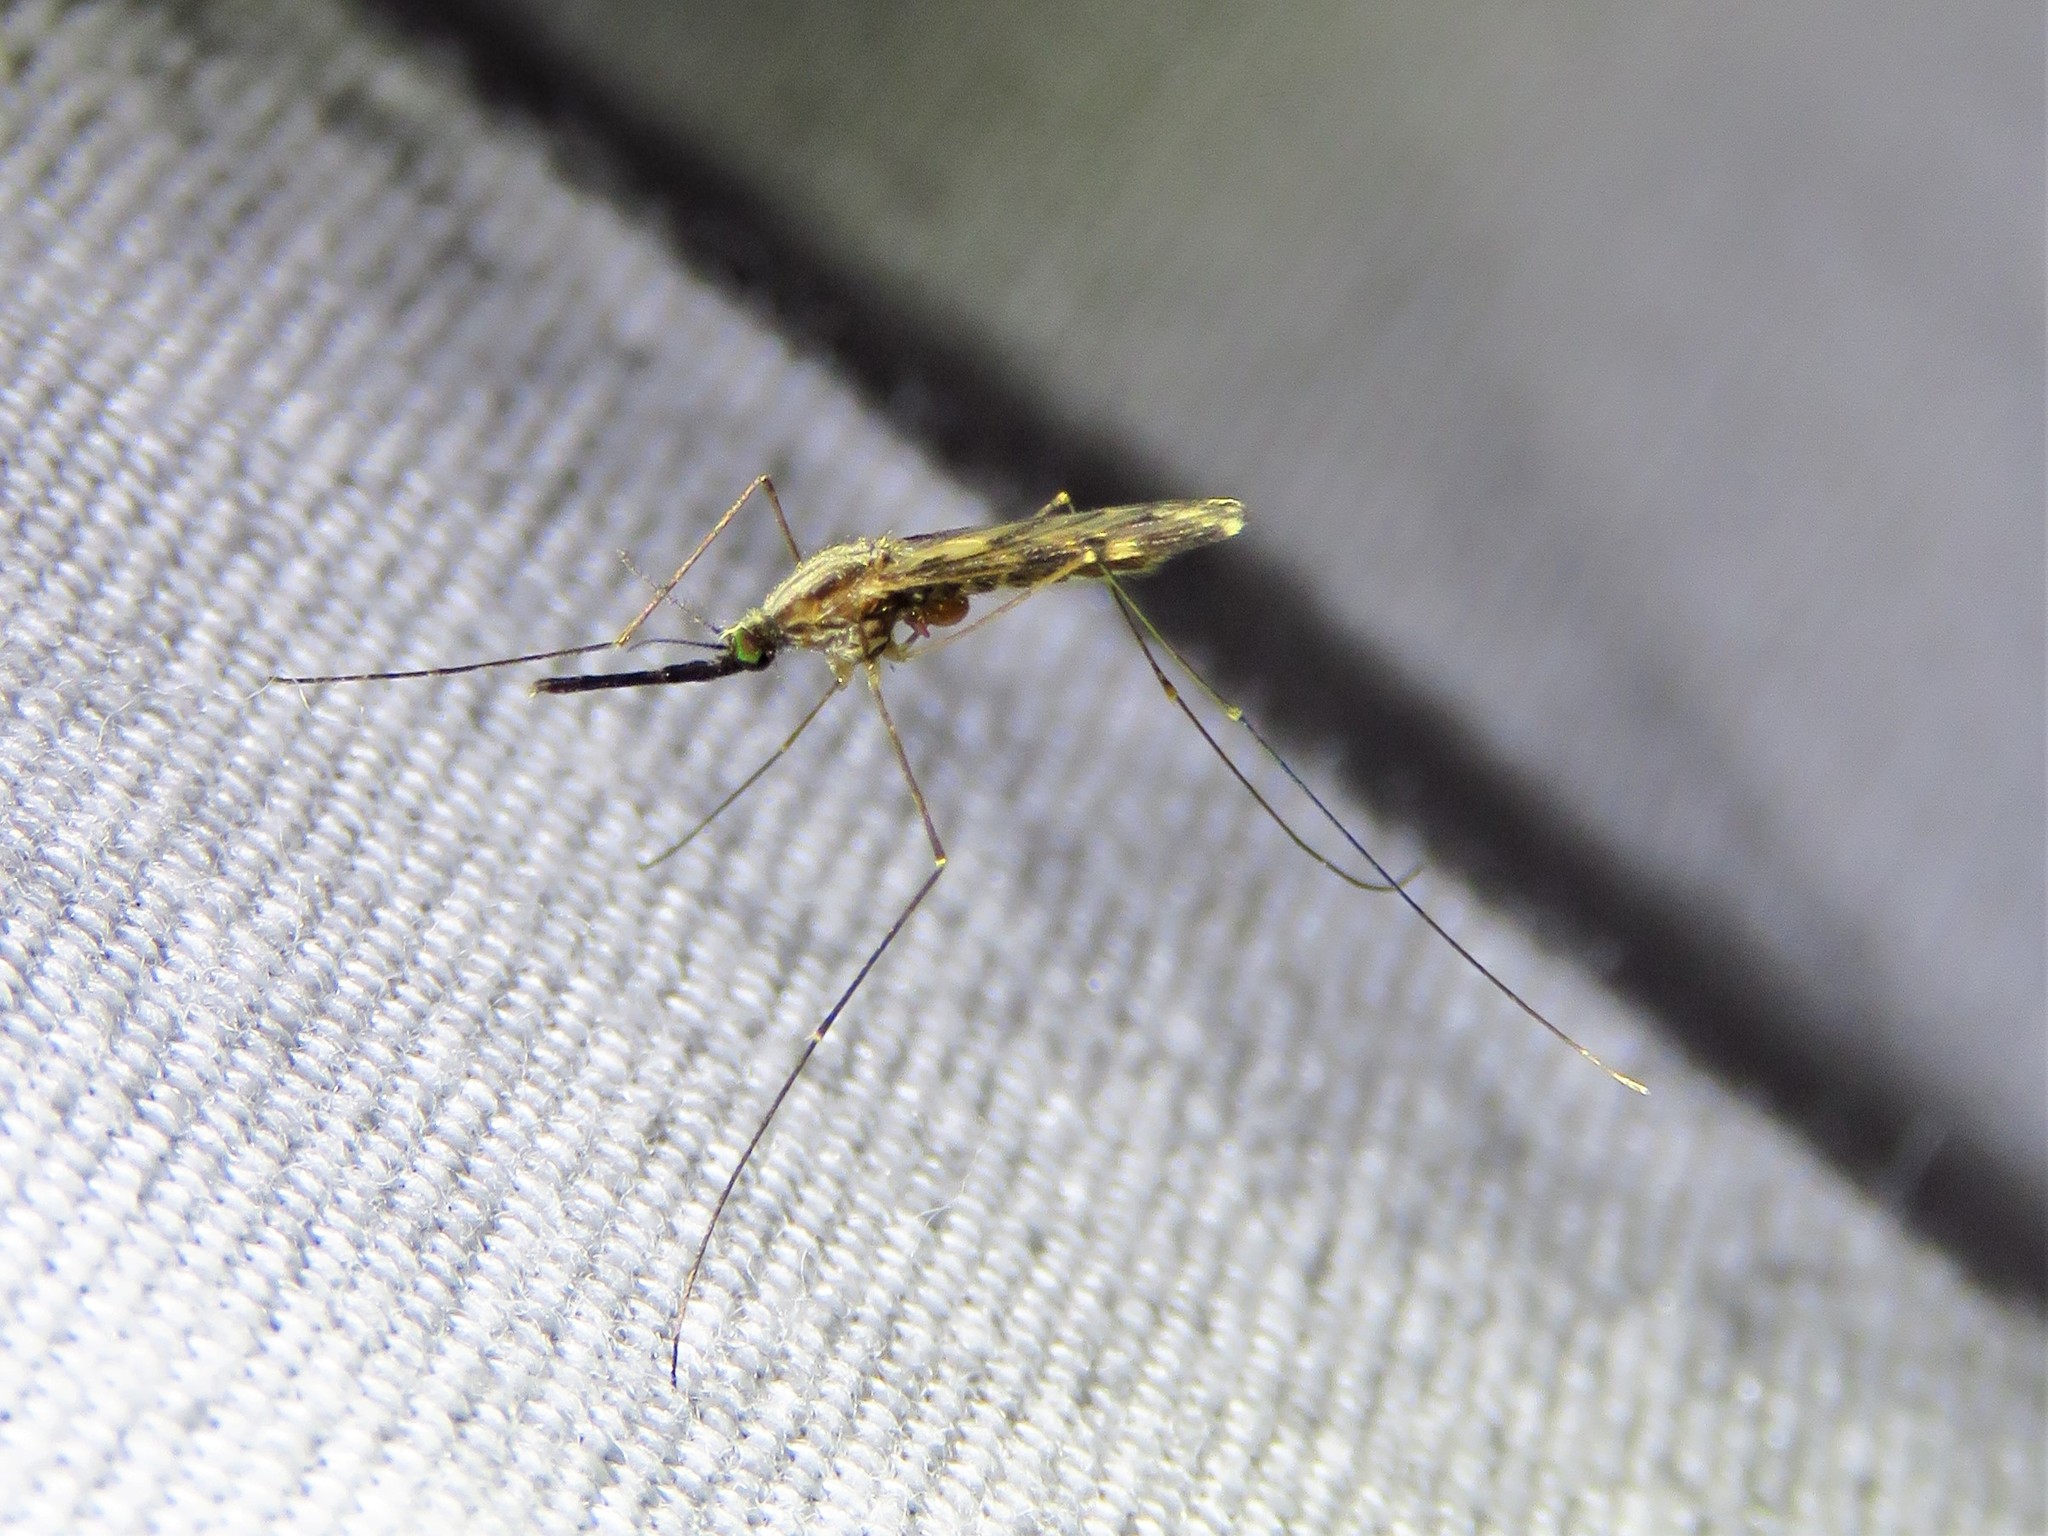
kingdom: Animalia
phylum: Arthropoda
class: Insecta
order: Diptera
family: Culicidae
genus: Anopheles
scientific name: Anopheles punctipennis
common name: Woodland malaria mosquito
